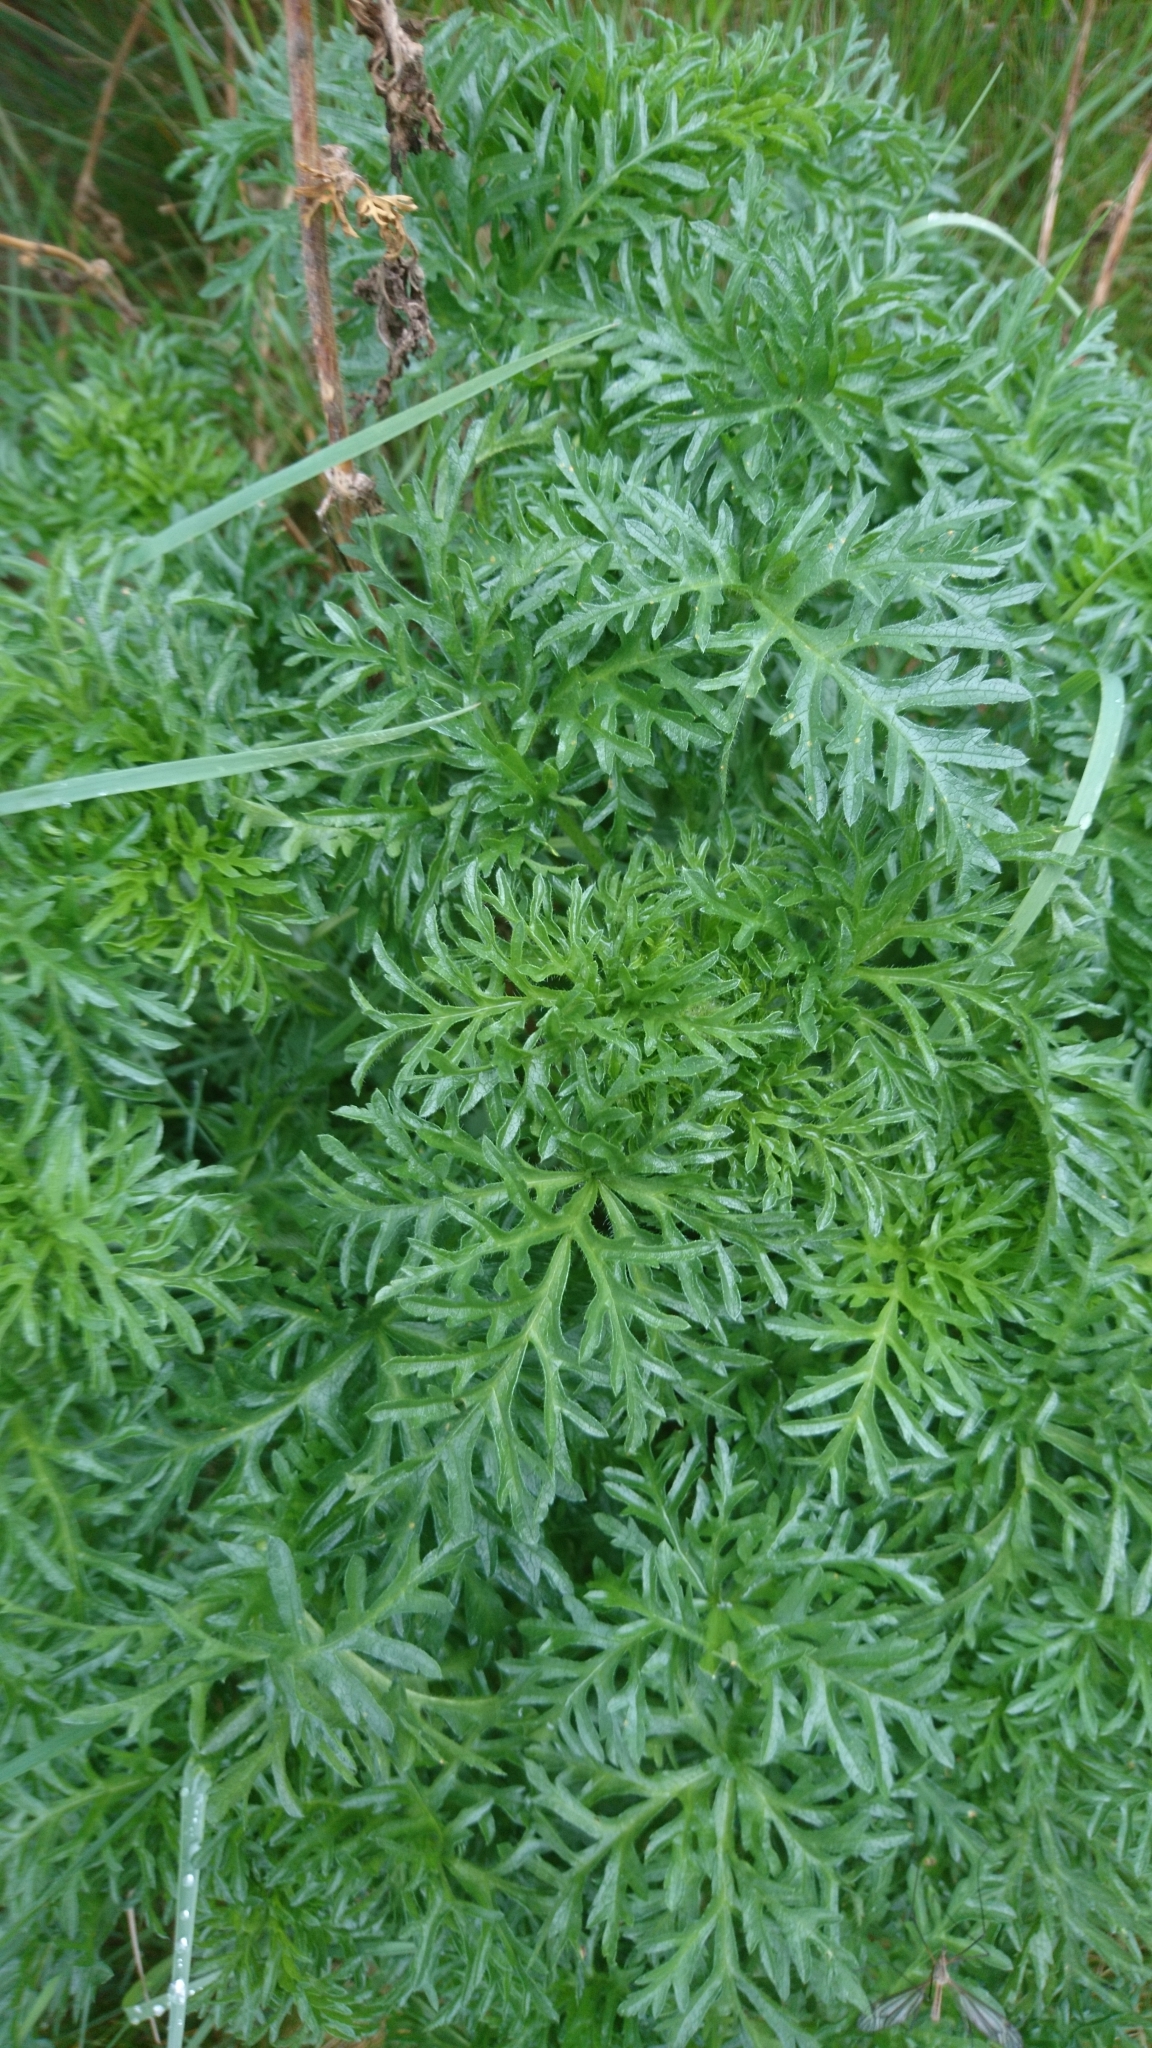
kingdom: Plantae
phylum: Tracheophyta
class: Magnoliopsida
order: Malvales
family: Malvaceae
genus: Malva
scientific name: Malva moschata
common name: Musk mallow
